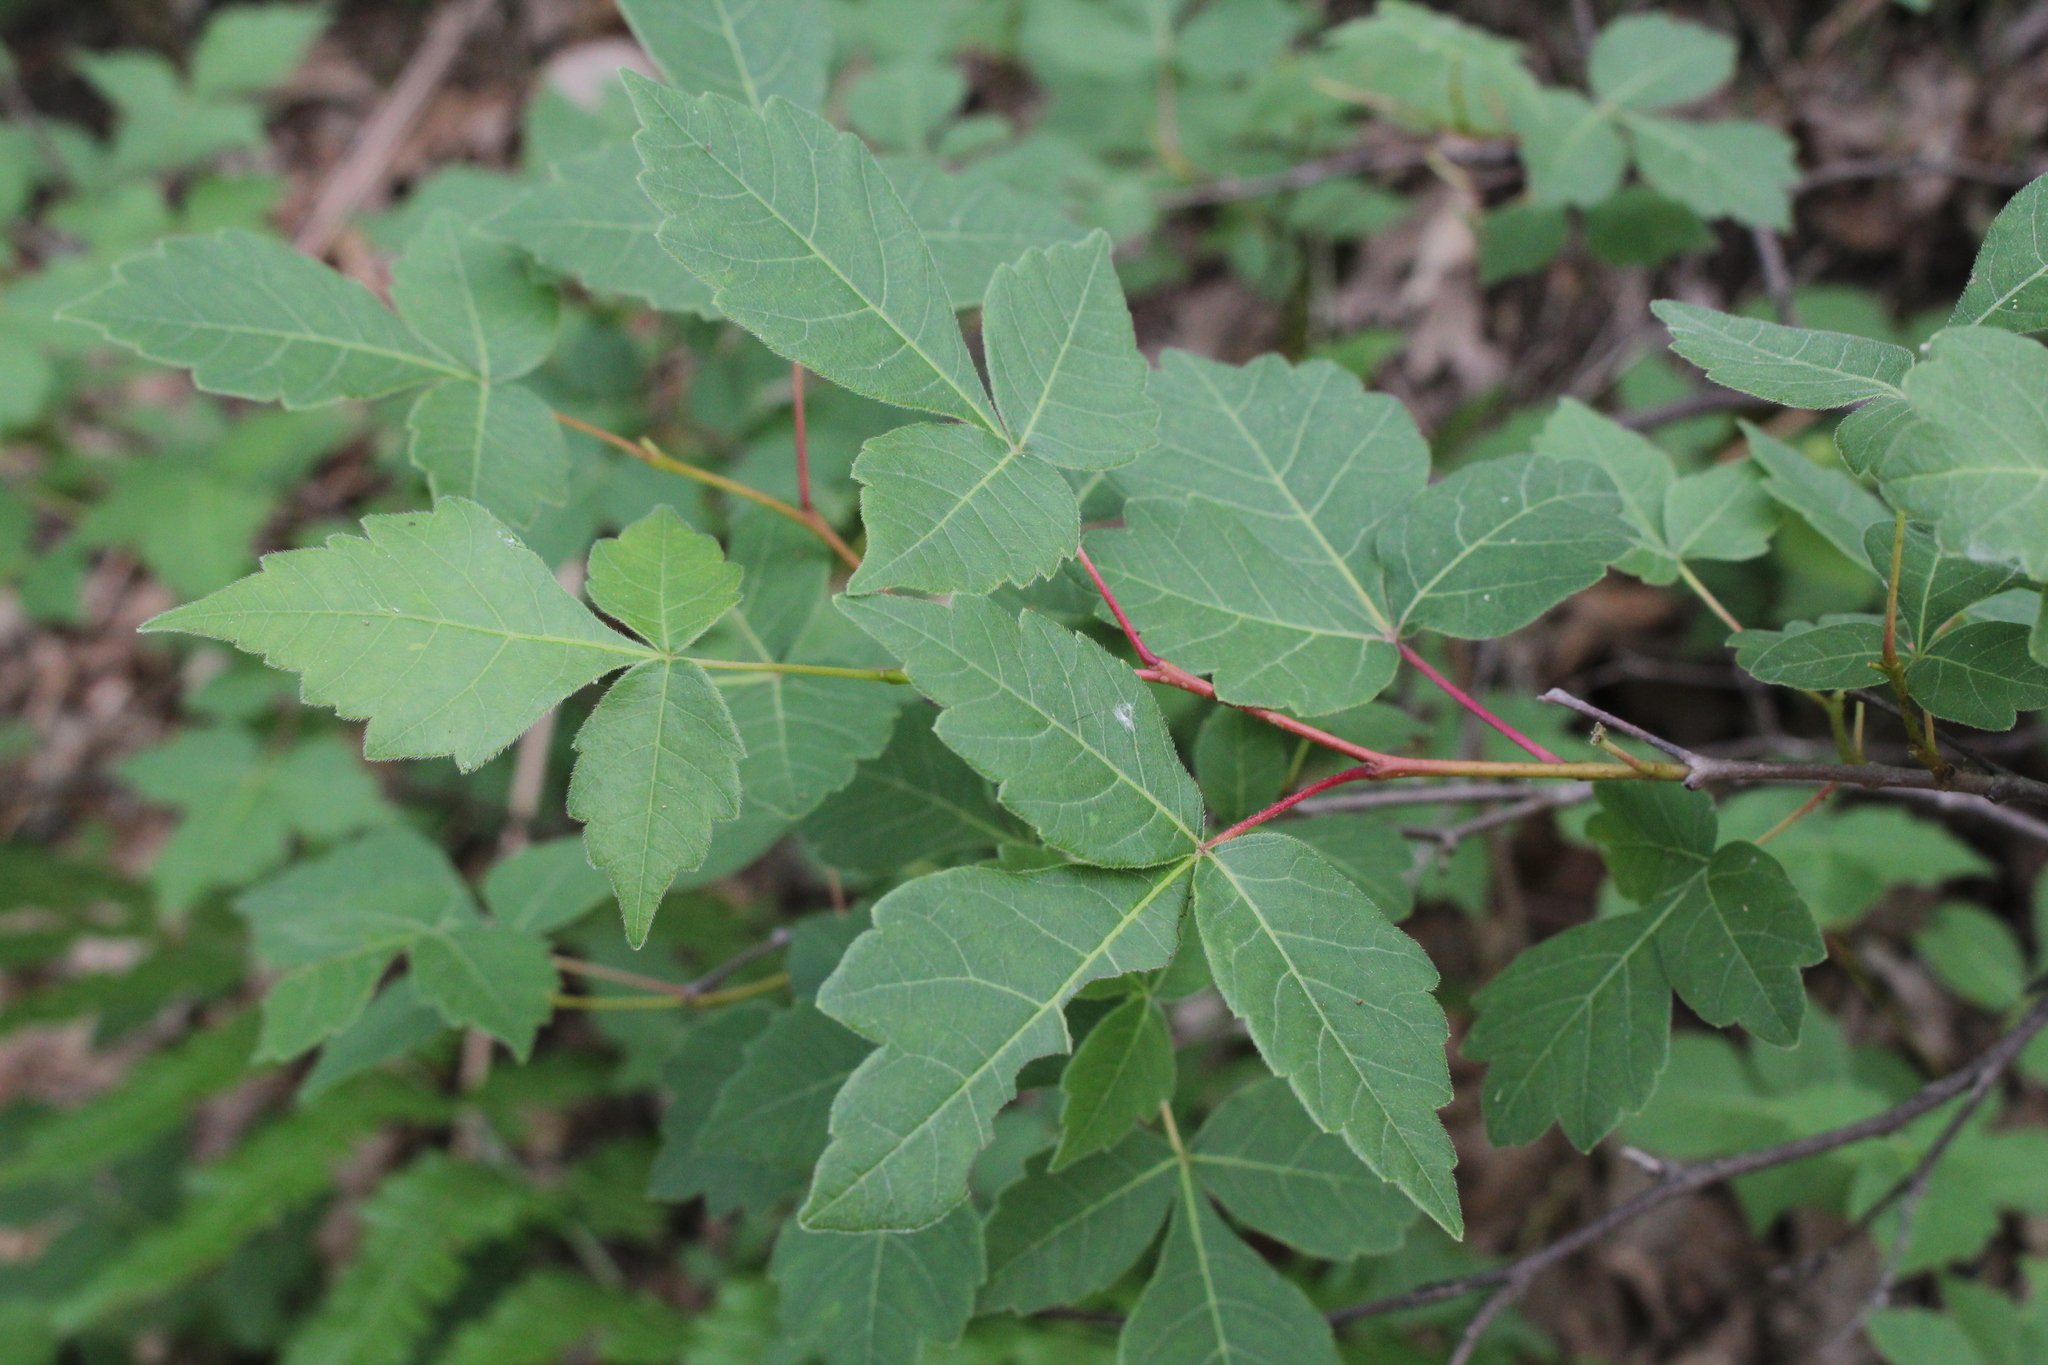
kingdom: Plantae
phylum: Tracheophyta
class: Magnoliopsida
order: Sapindales
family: Anacardiaceae
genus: Rhus
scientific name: Rhus aromatica
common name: Aromatic sumac
